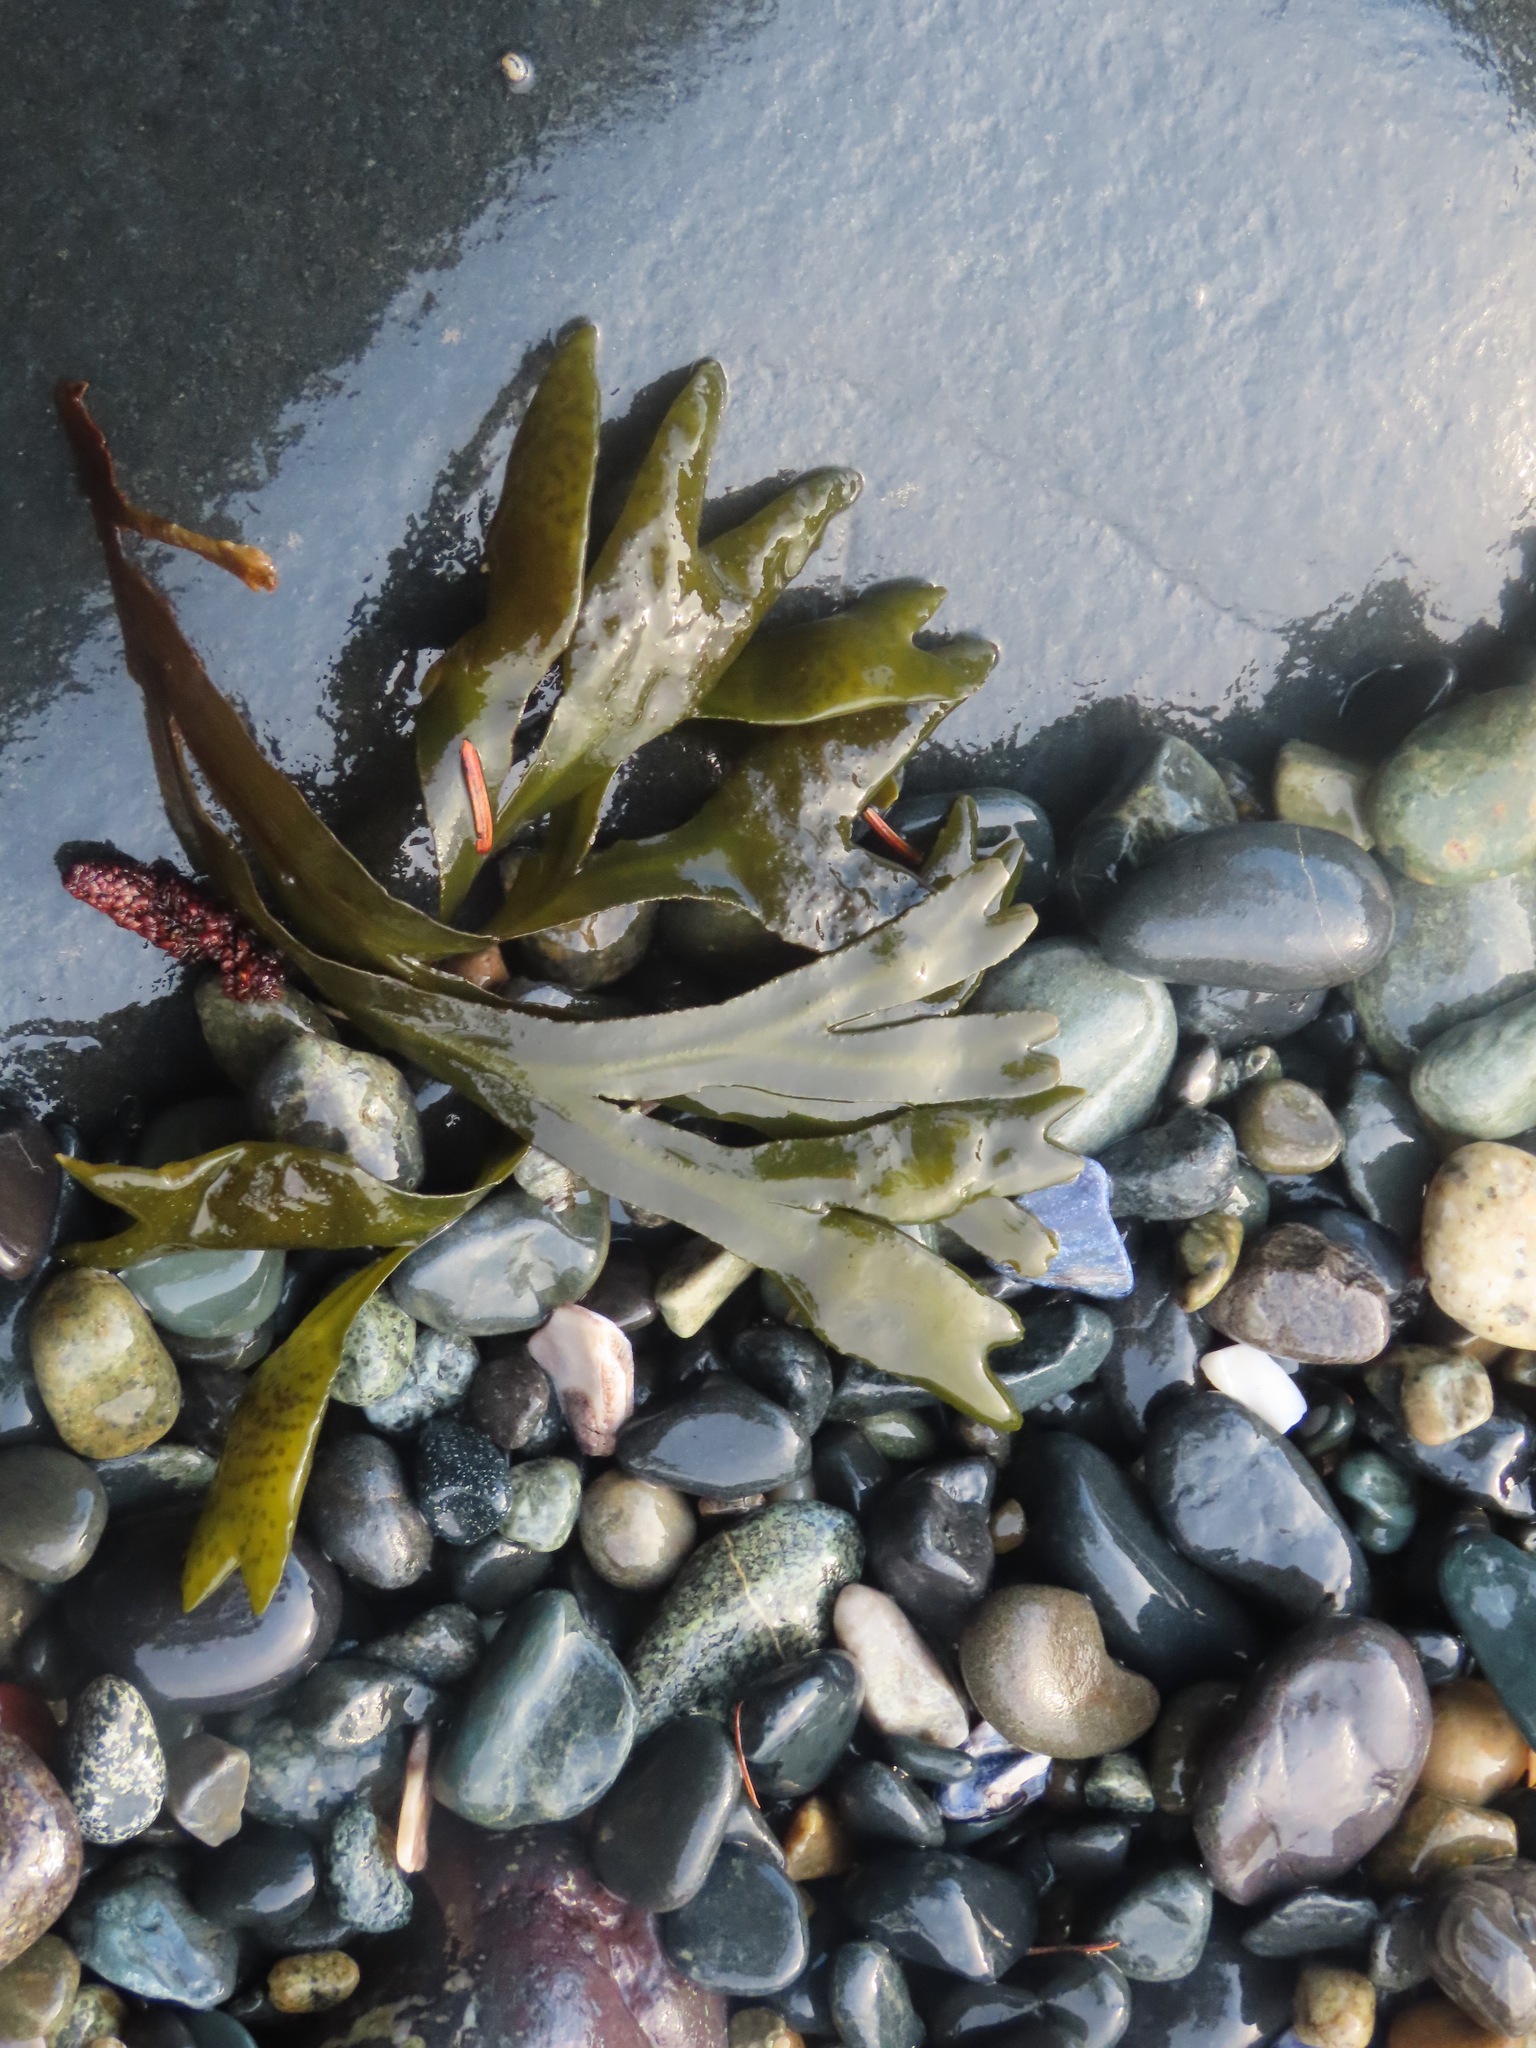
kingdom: Chromista
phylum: Ochrophyta
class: Phaeophyceae
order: Fucales
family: Fucaceae
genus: Fucus
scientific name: Fucus distichus
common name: Rockweed
